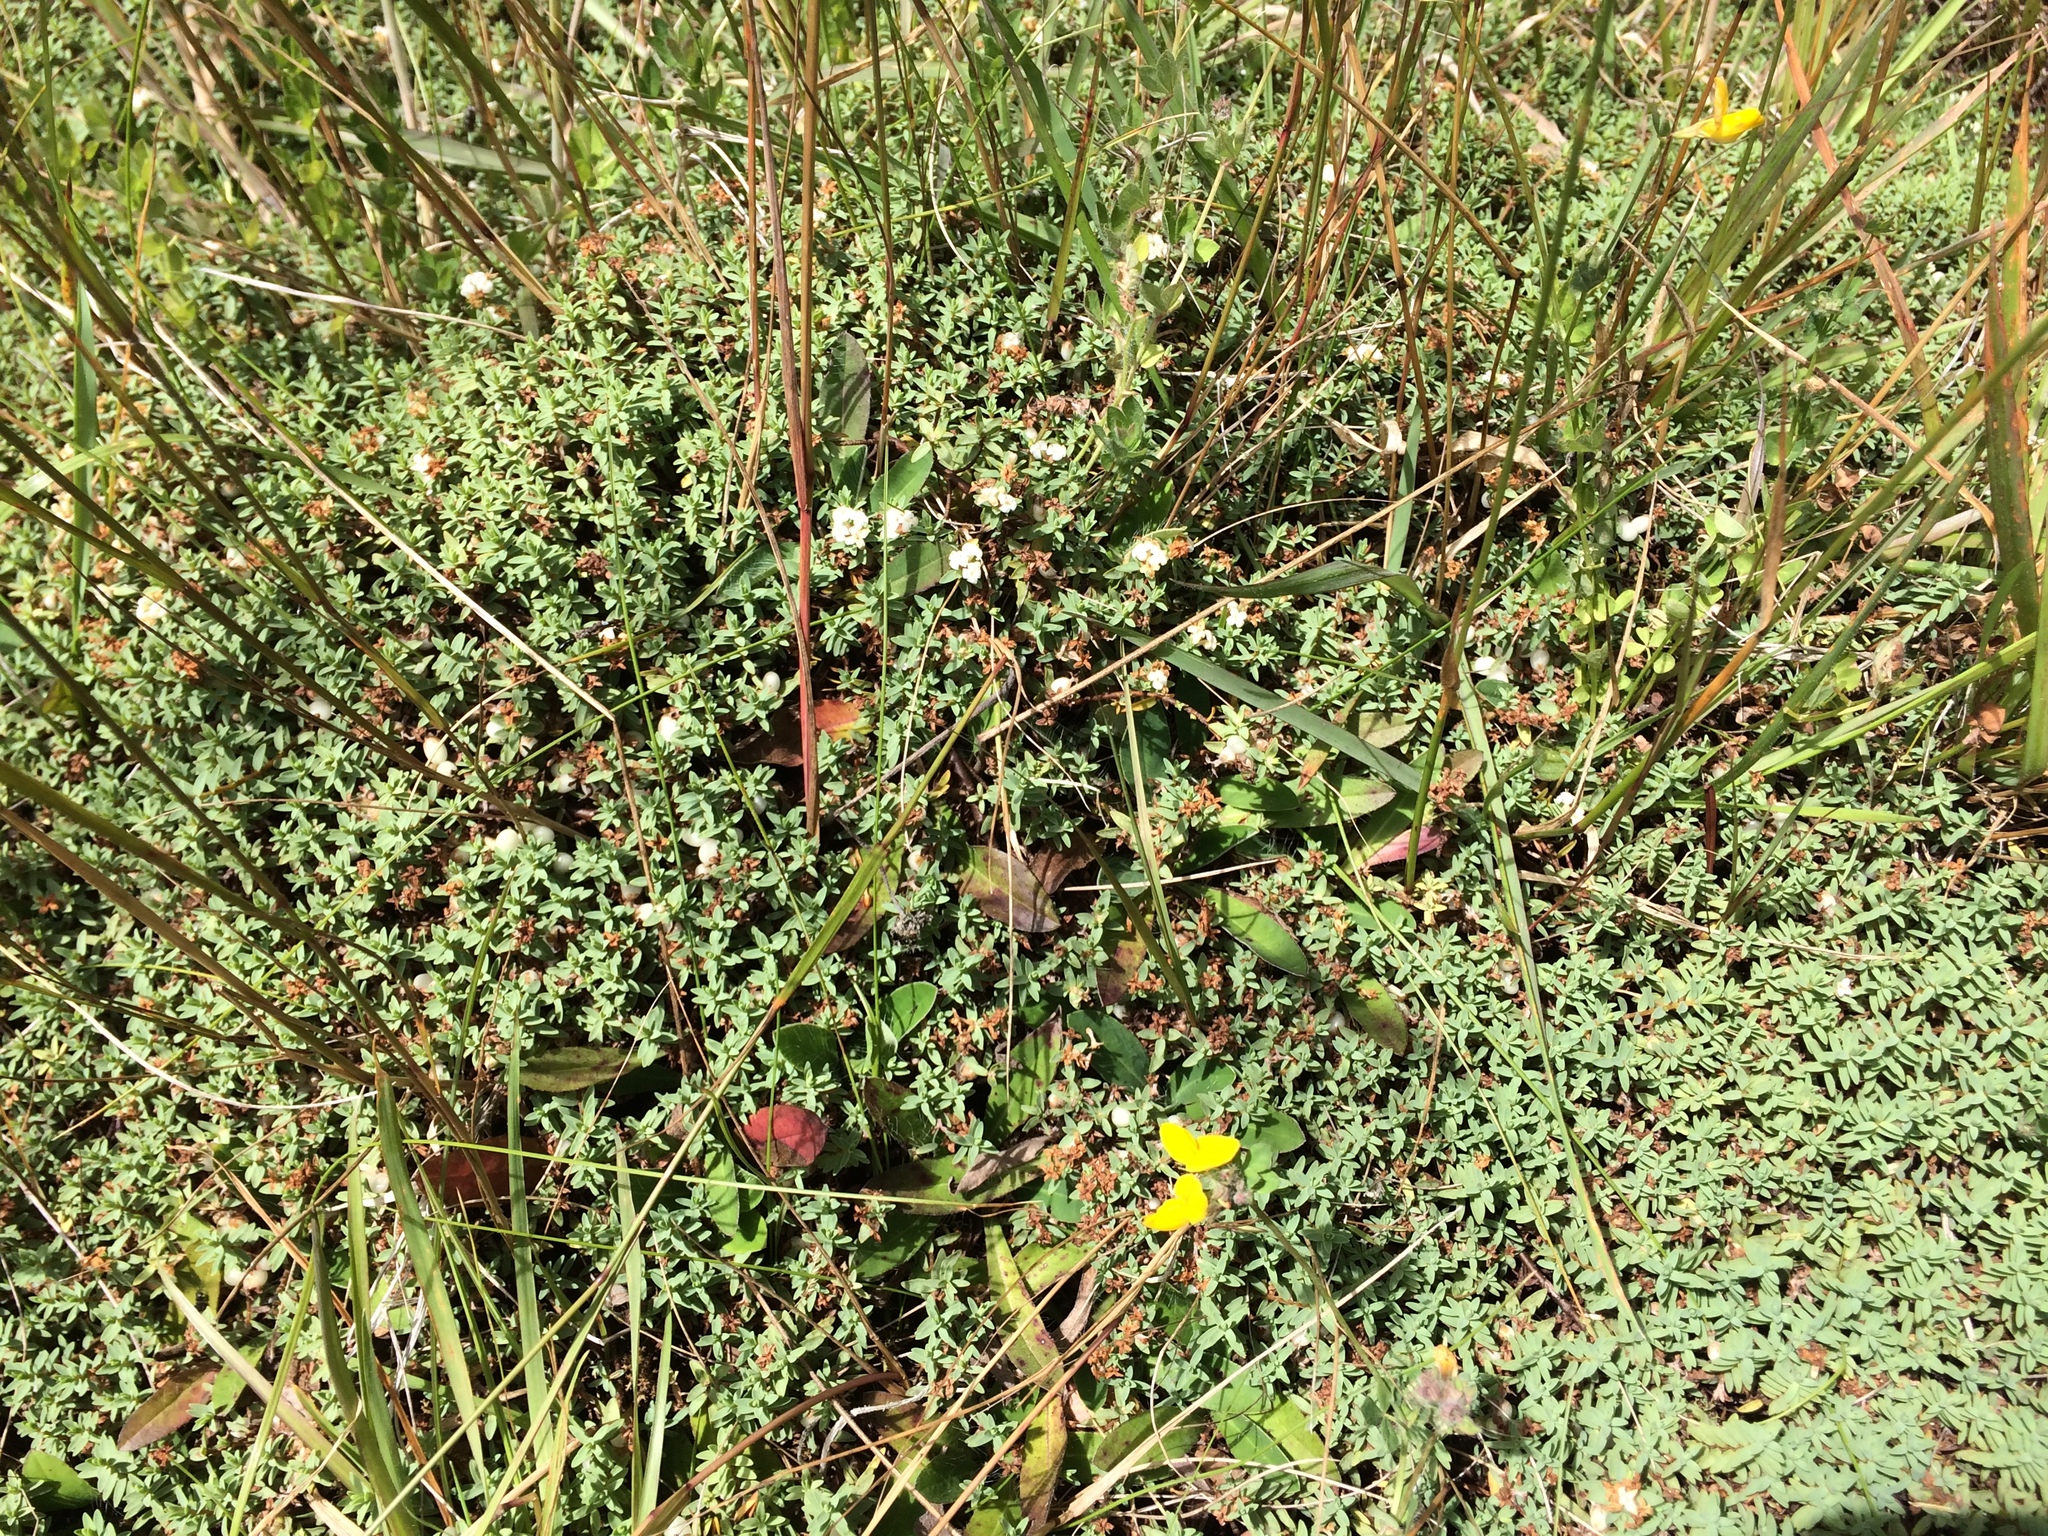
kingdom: Plantae
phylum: Tracheophyta
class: Magnoliopsida
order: Malvales
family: Thymelaeaceae
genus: Pimelea
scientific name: Pimelea prostrata
